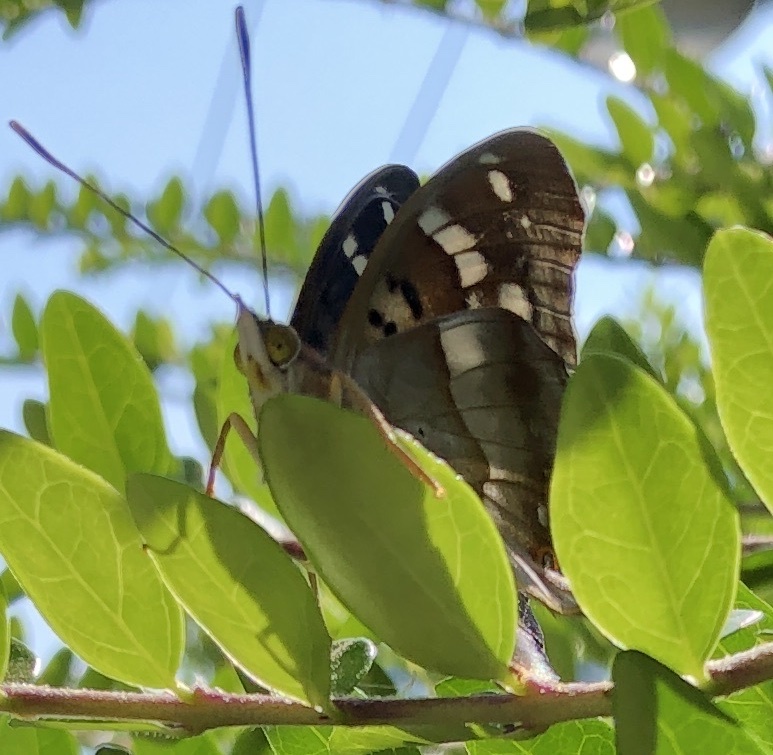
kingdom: Animalia
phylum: Arthropoda
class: Insecta
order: Lepidoptera
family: Nymphalidae
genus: Apatura
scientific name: Apatura ilia
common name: Lesser purple emperor
